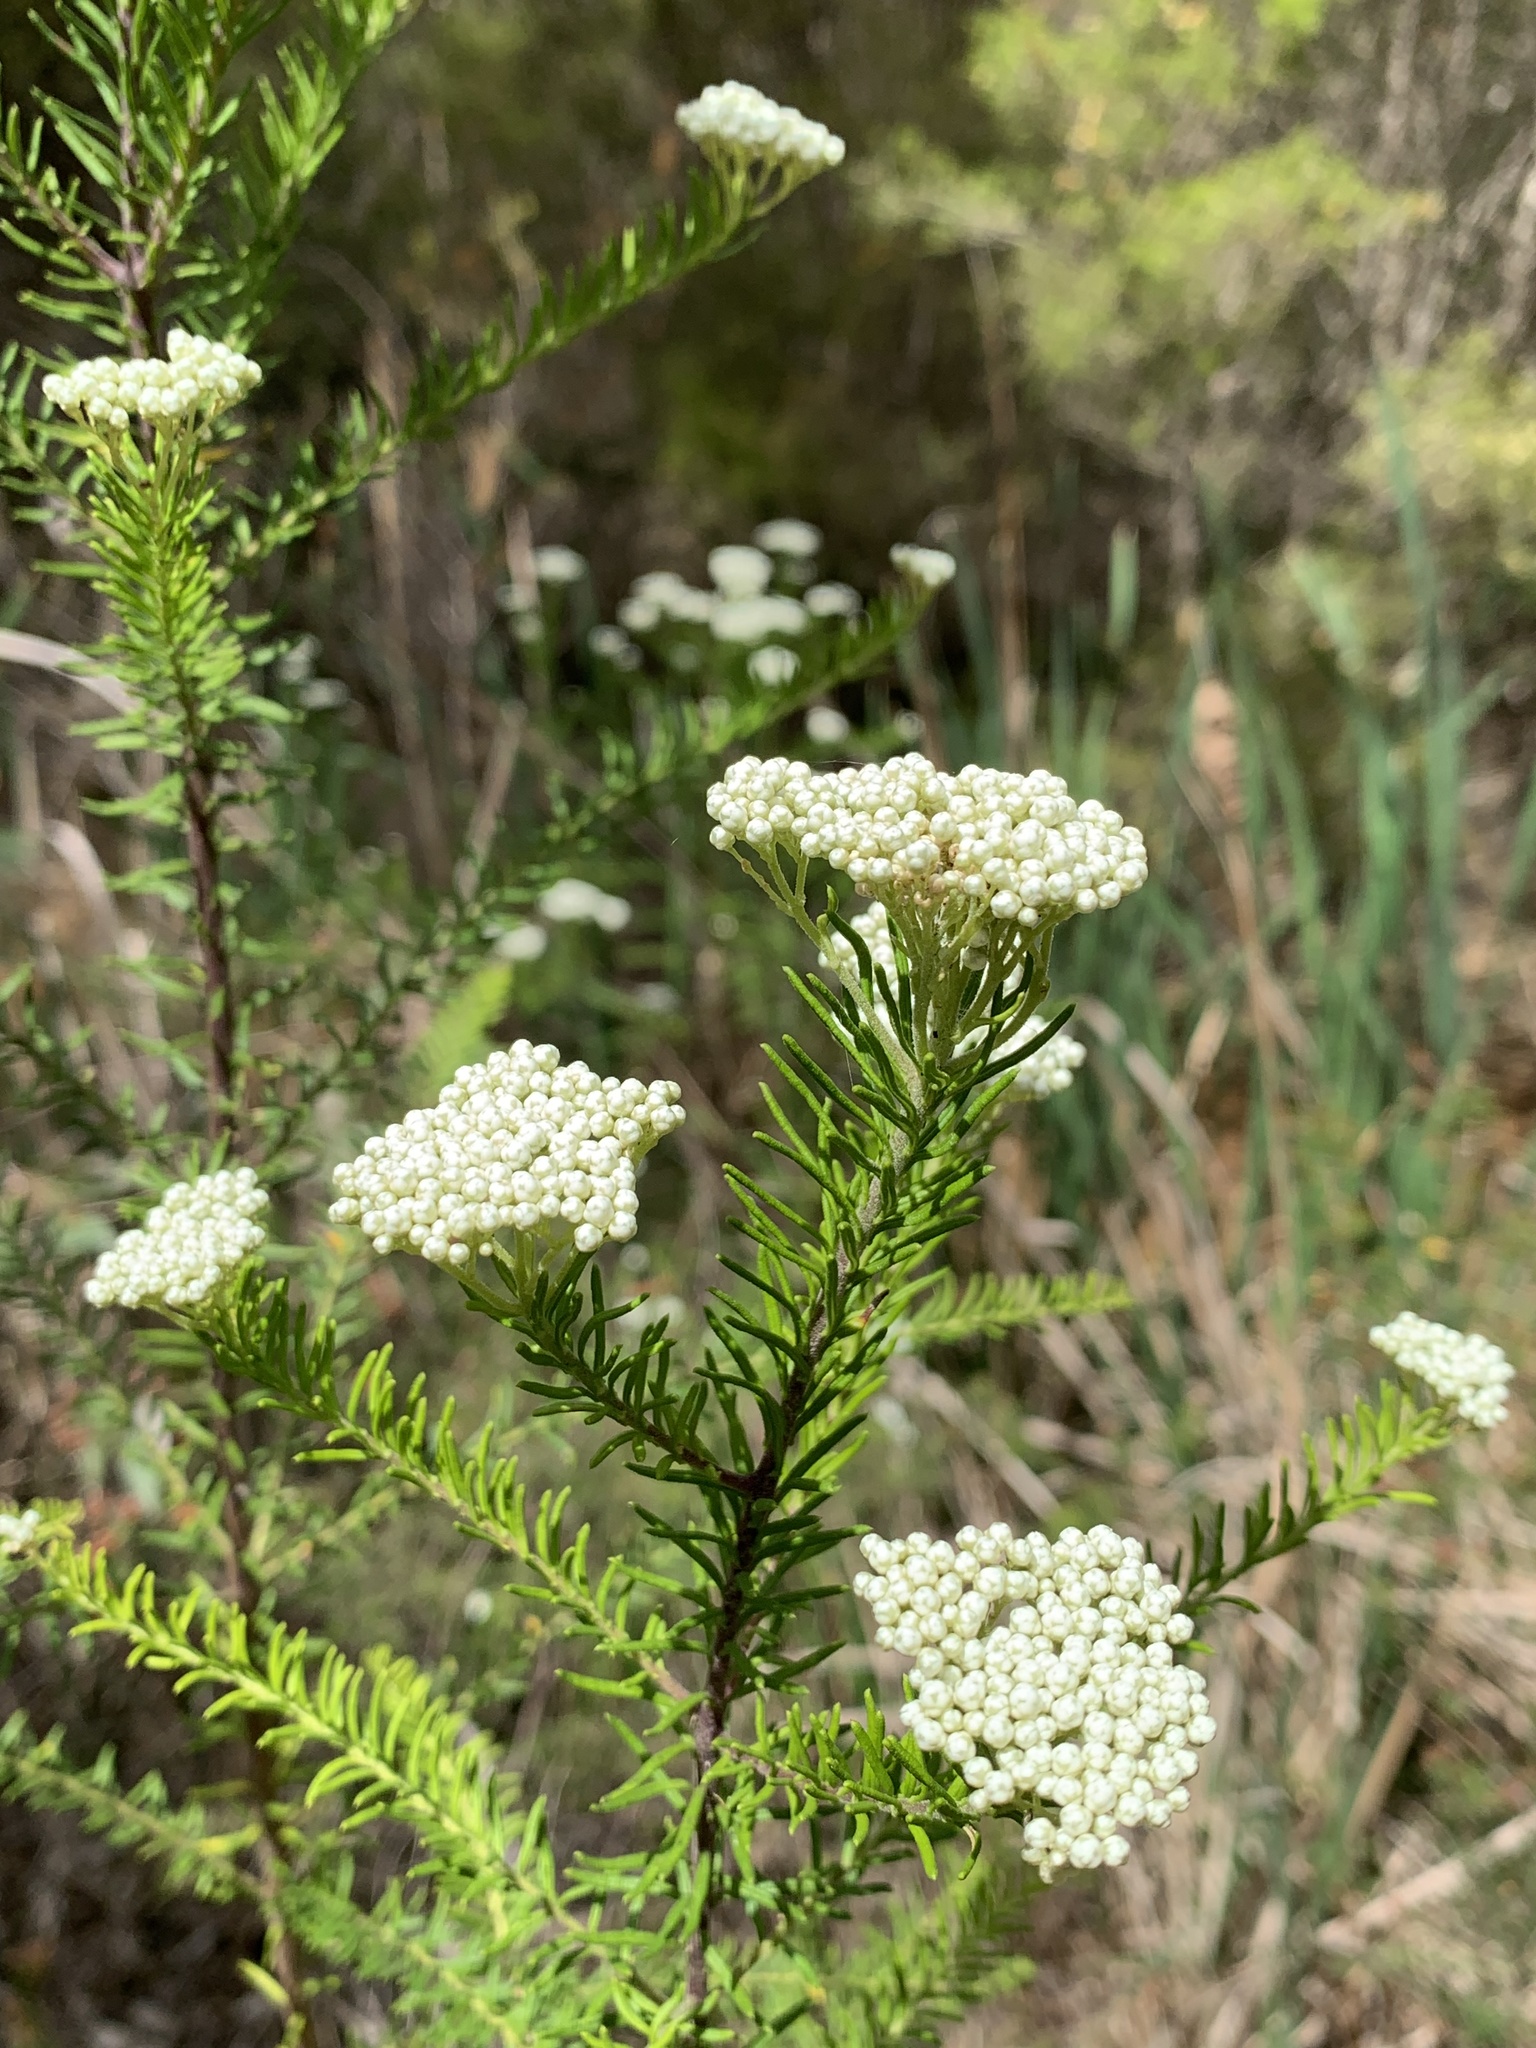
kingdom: Plantae
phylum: Tracheophyta
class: Magnoliopsida
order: Asterales
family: Asteraceae
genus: Ozothamnus
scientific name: Ozothamnus diosmifolius
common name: White-dogwood
